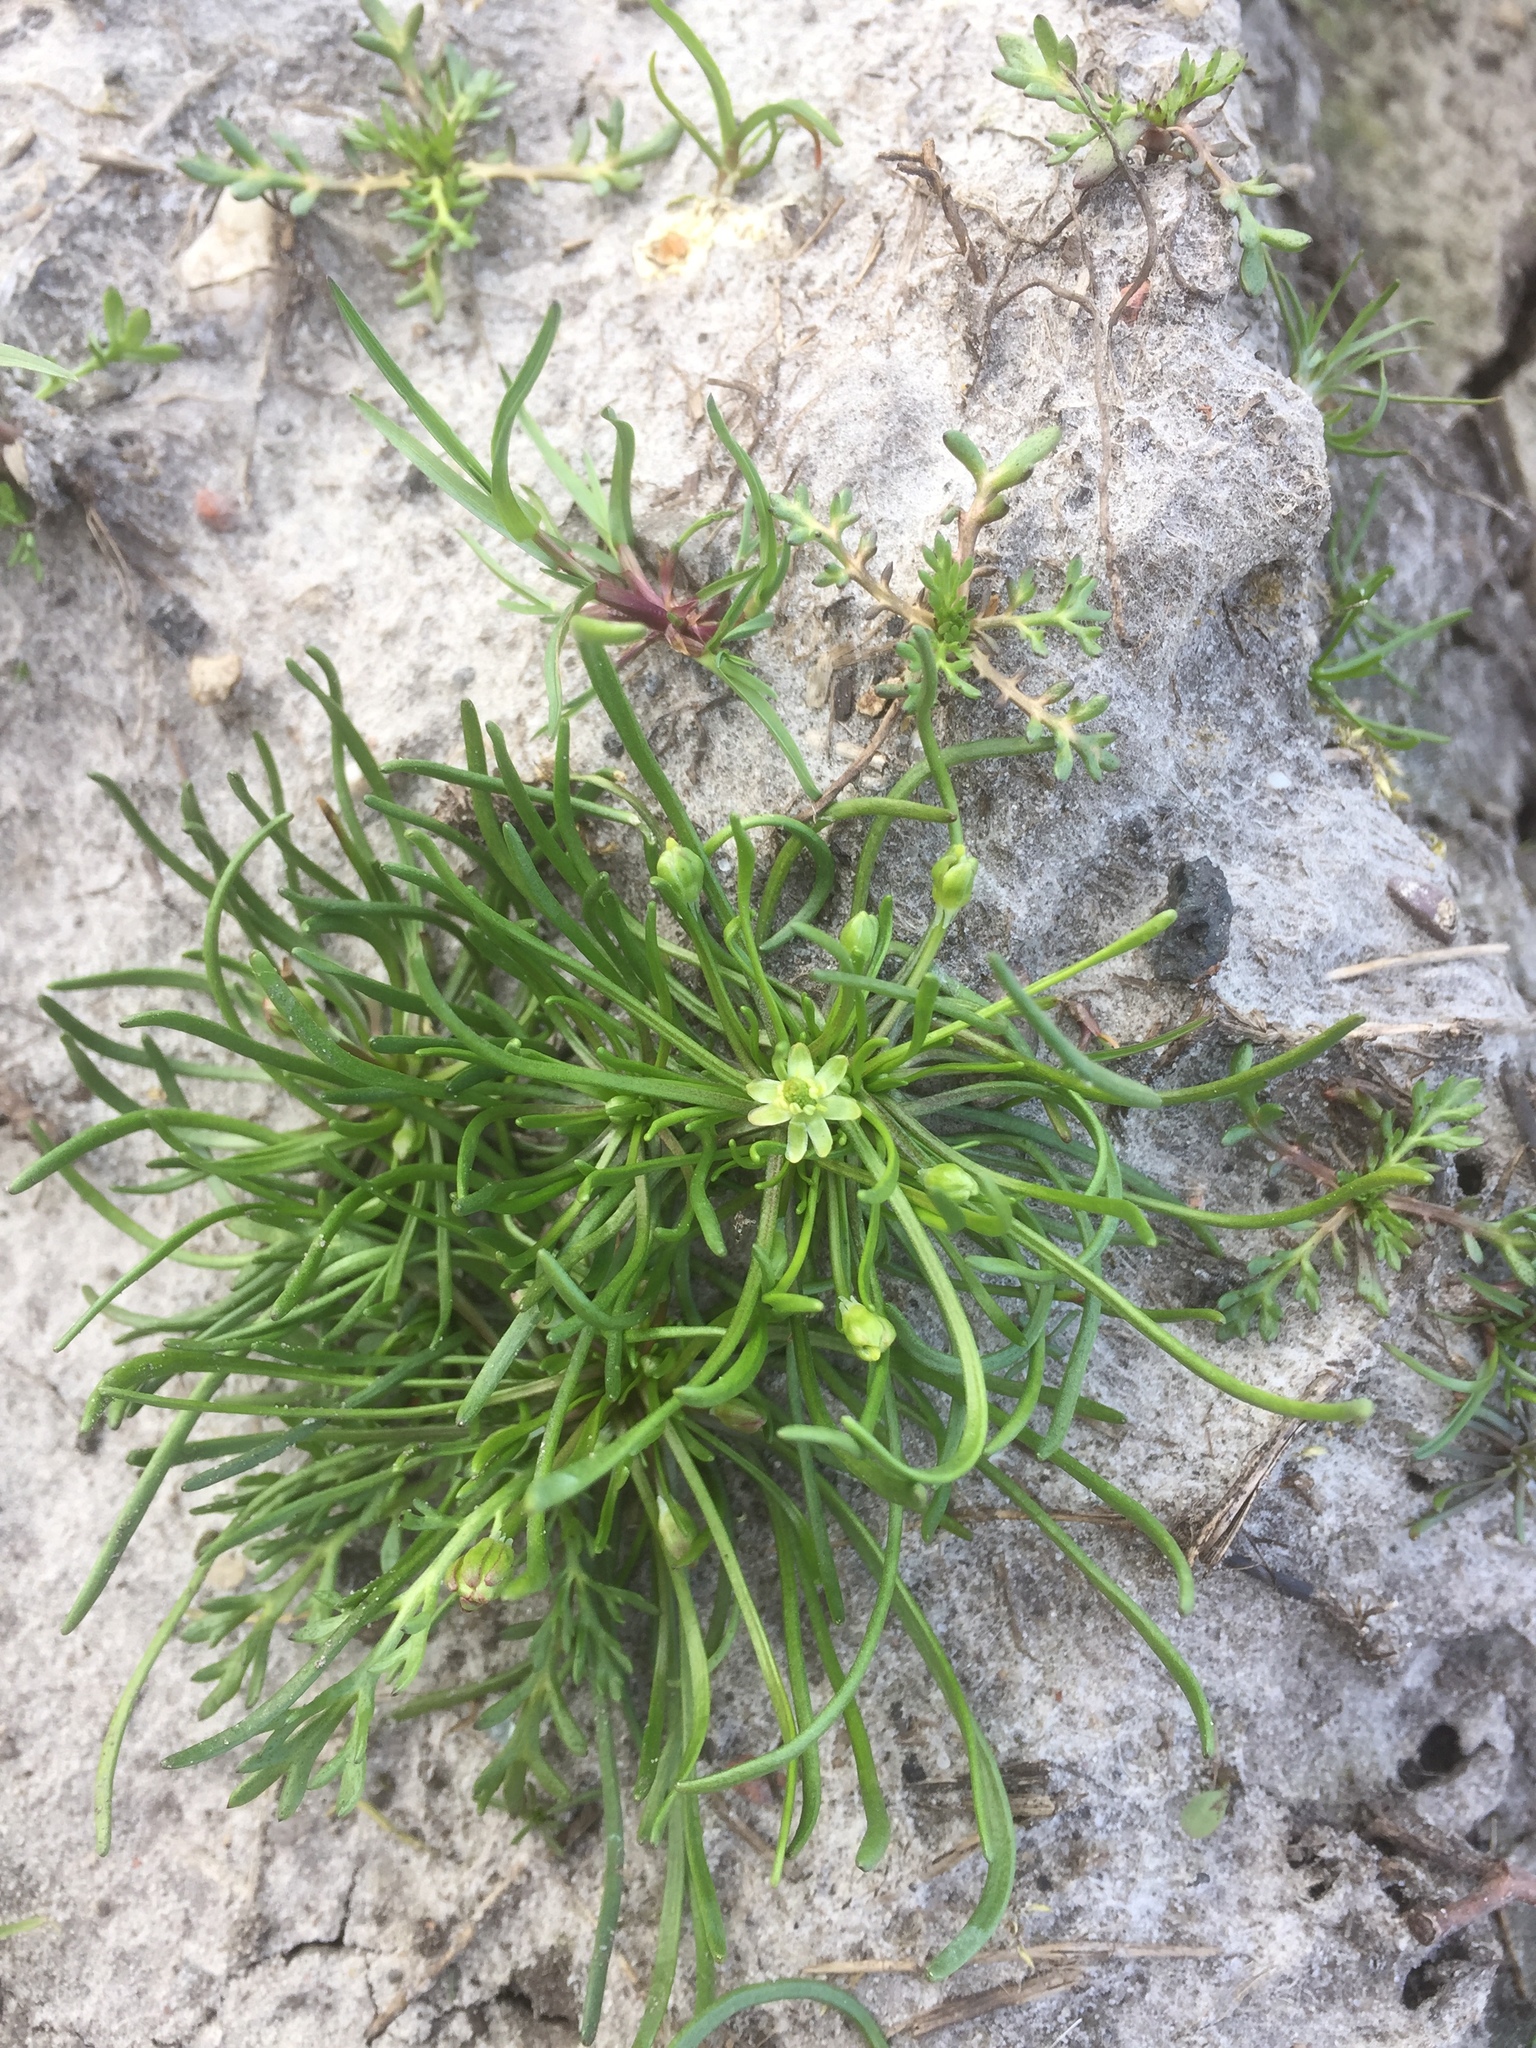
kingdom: Plantae
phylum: Tracheophyta
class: Magnoliopsida
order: Ranunculales
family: Ranunculaceae
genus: Myosurus
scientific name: Myosurus minimus
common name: Mousetail
